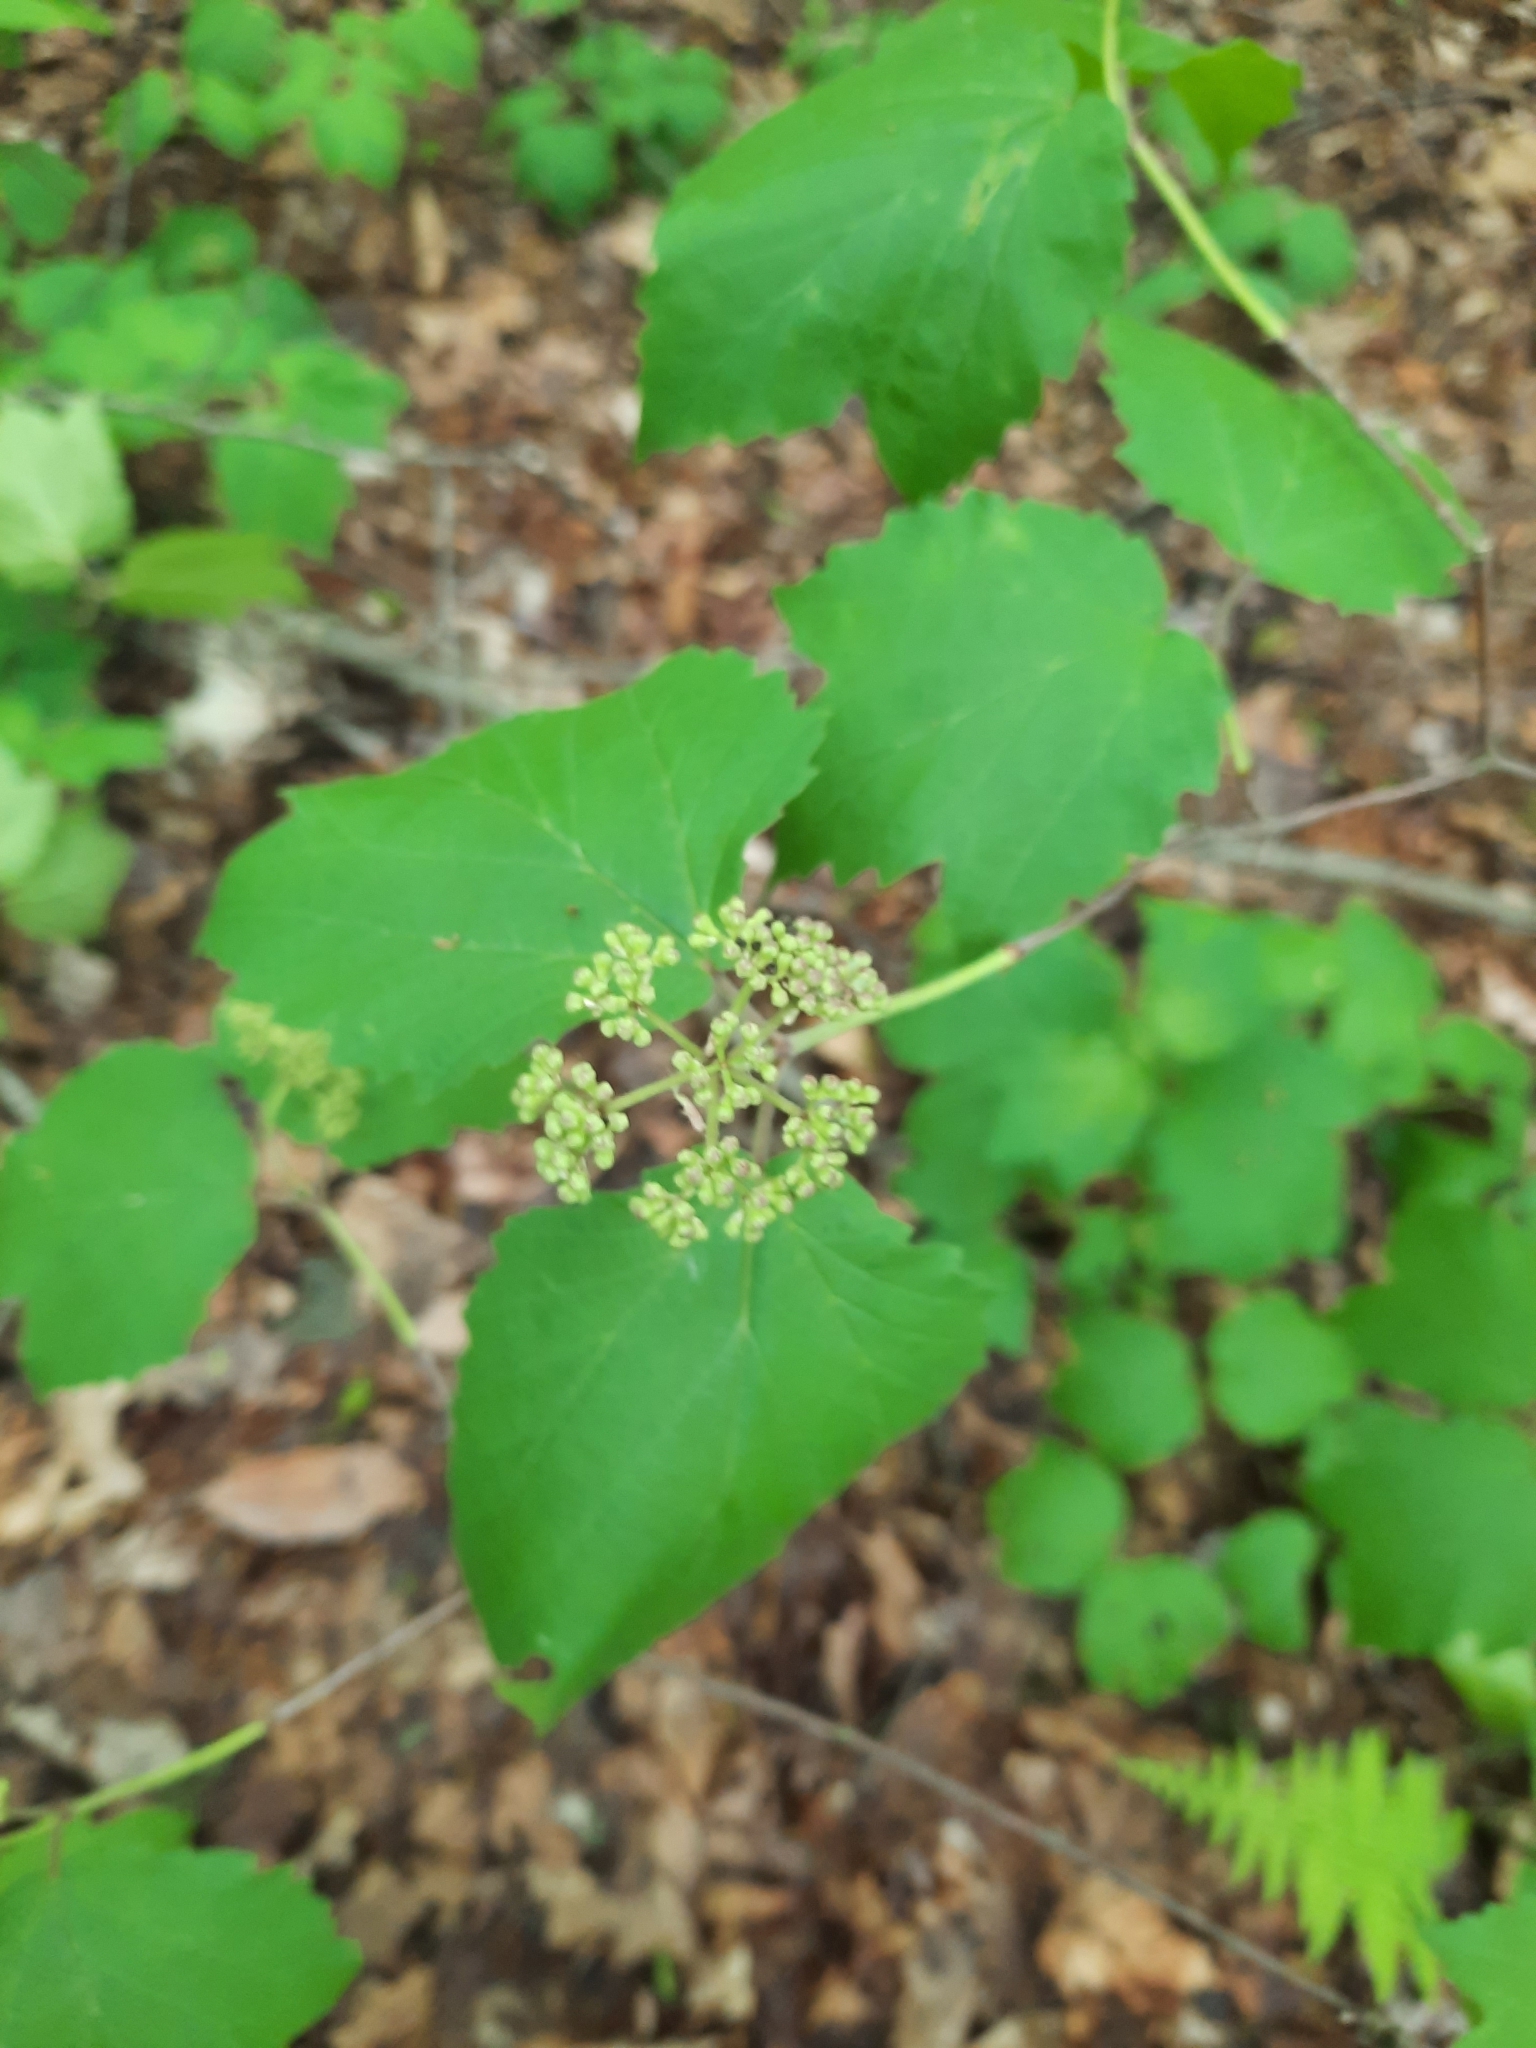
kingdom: Plantae
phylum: Tracheophyta
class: Magnoliopsida
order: Dipsacales
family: Viburnaceae
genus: Viburnum
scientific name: Viburnum acerifolium
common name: Dockmackie
